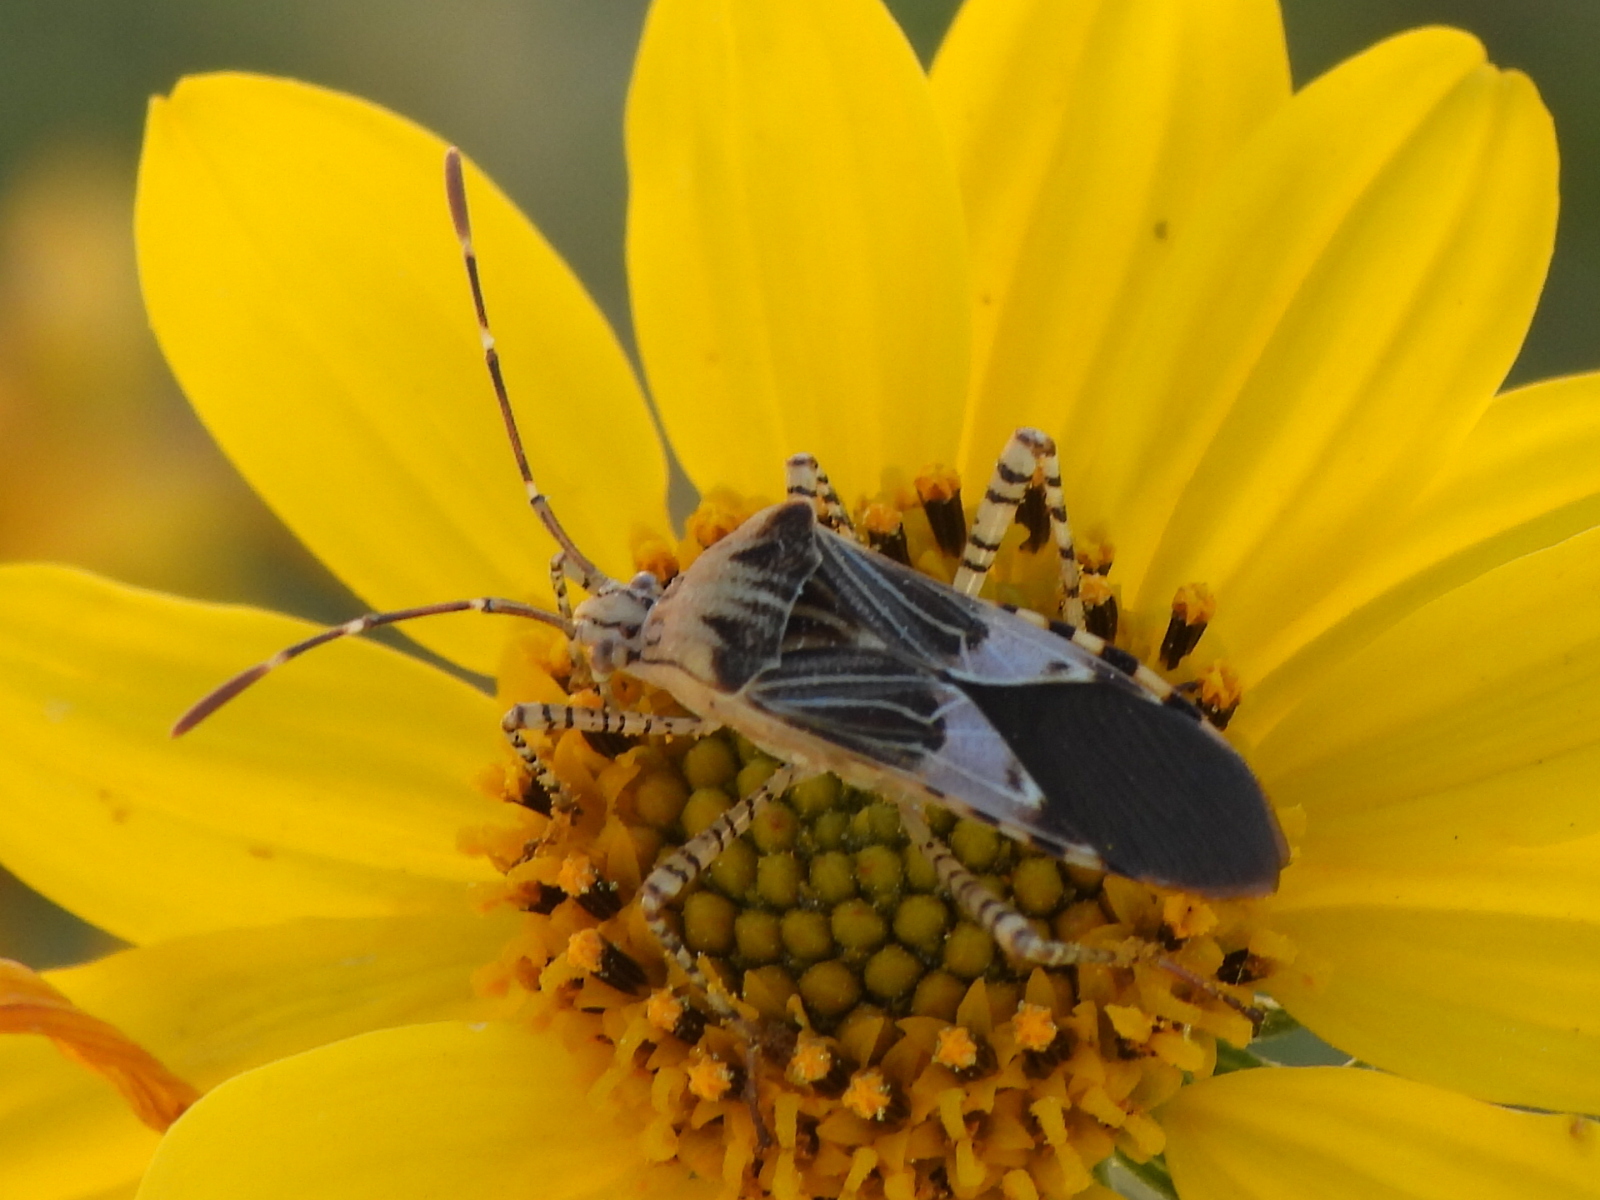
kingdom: Animalia
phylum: Arthropoda
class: Insecta
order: Hemiptera
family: Coreidae
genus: Hypselonotus
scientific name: Hypselonotus punctiventris
